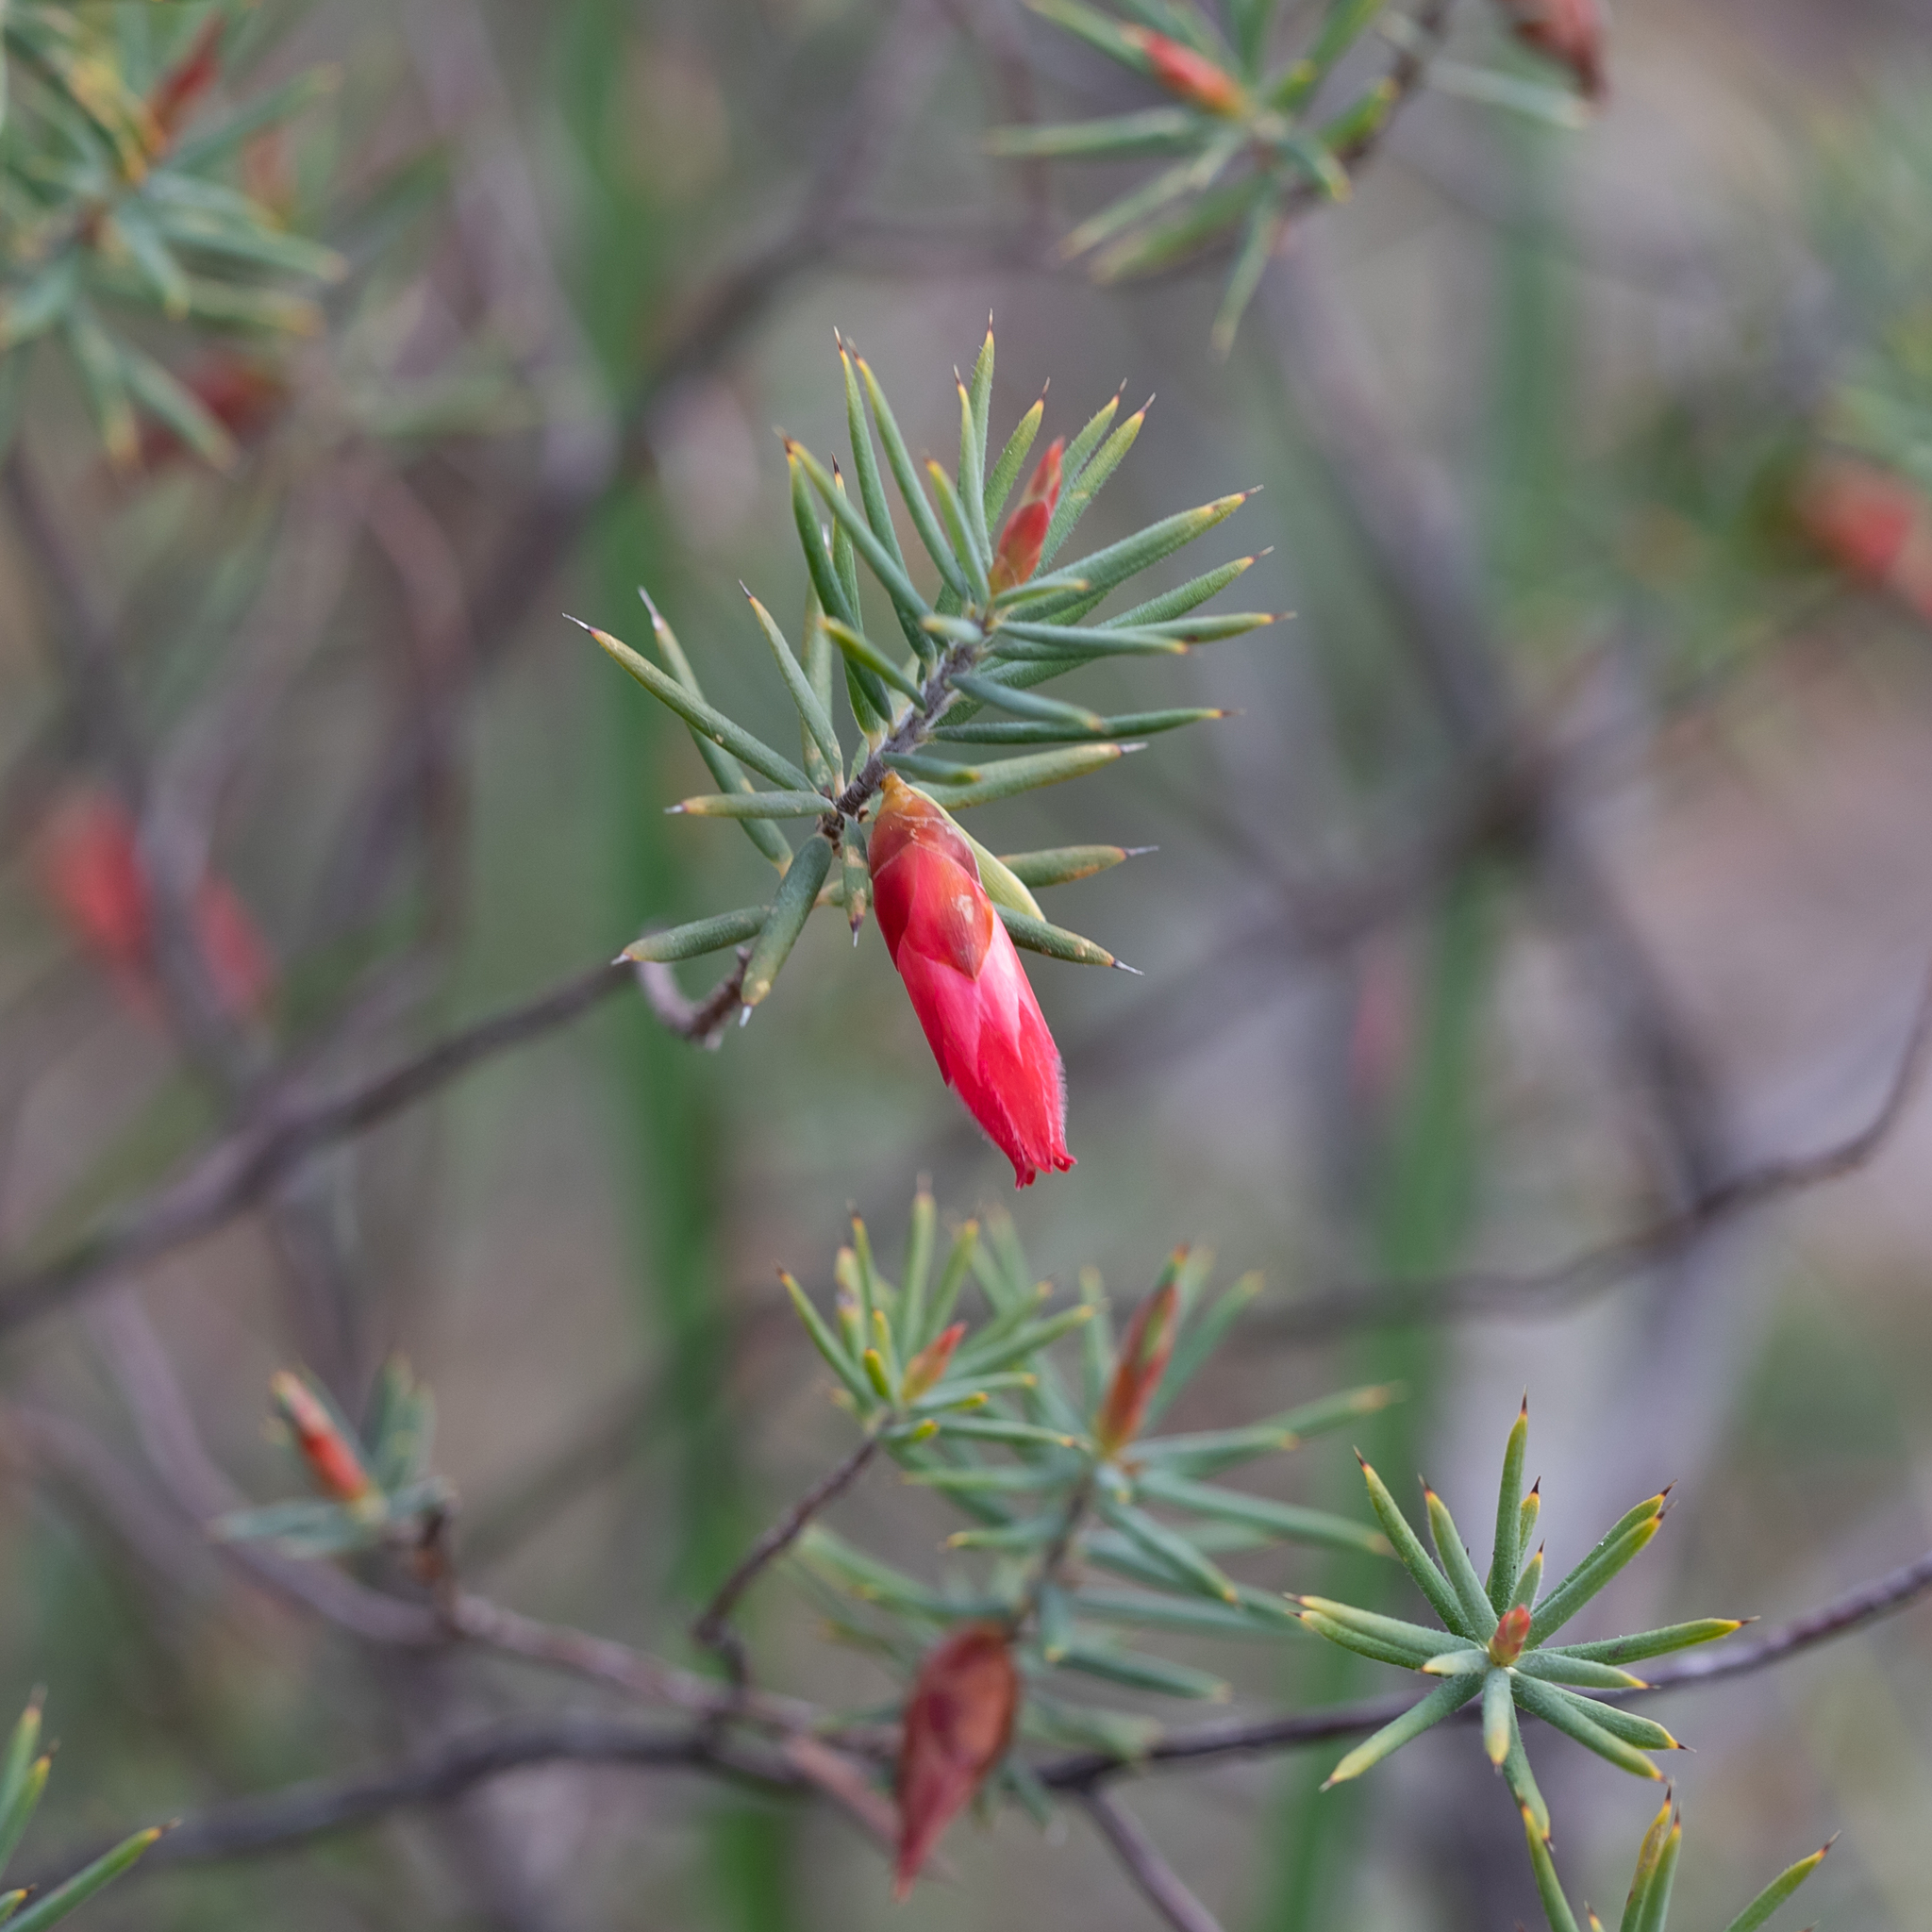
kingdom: Plantae
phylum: Tracheophyta
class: Magnoliopsida
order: Ericales
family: Ericaceae
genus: Stenanthera
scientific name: Stenanthera conostephioides
